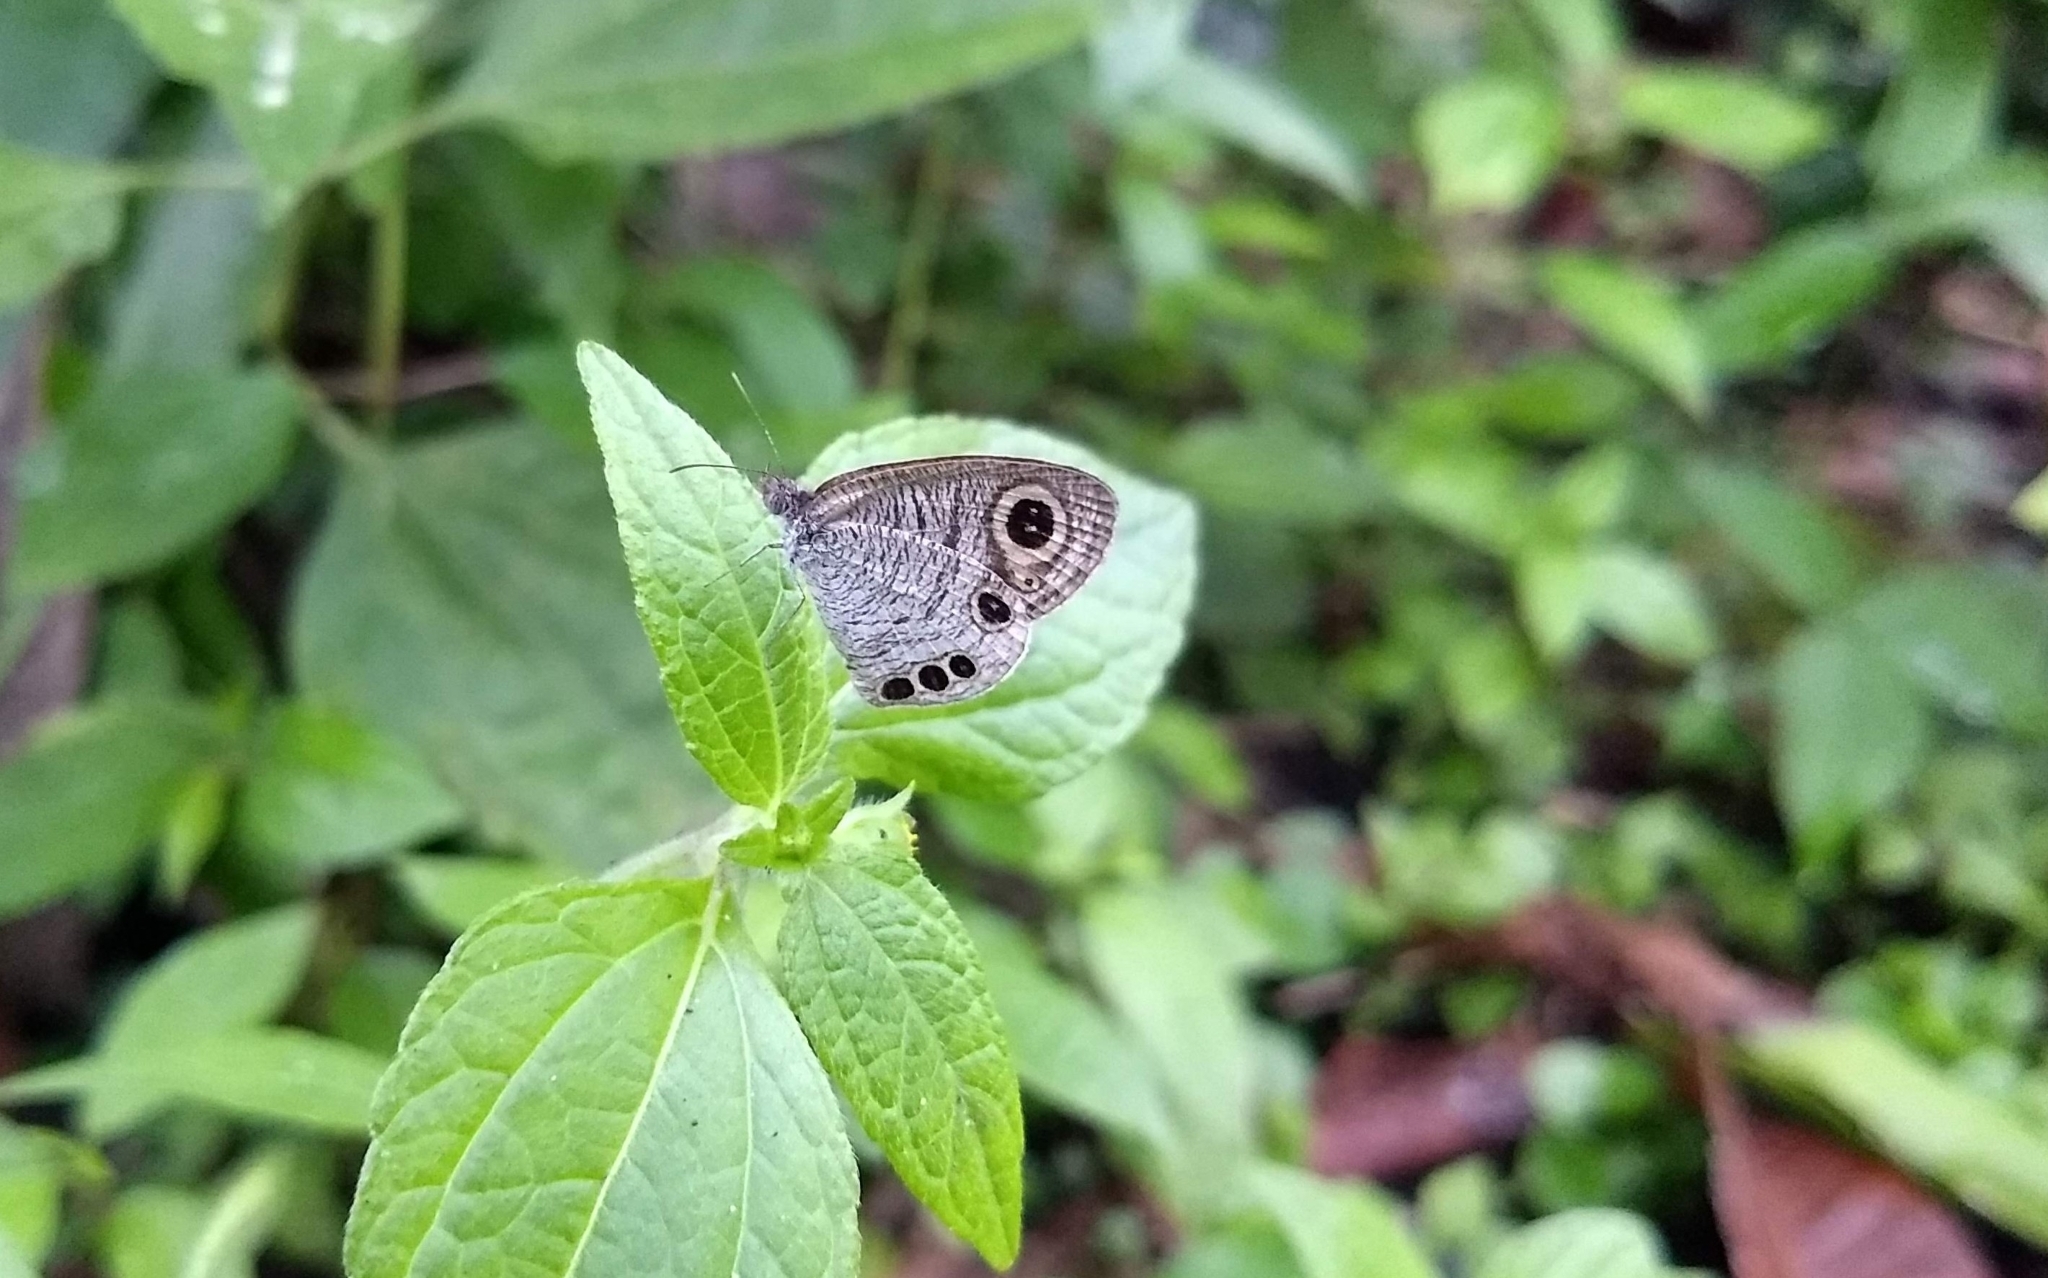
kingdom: Animalia
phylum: Arthropoda
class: Insecta
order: Lepidoptera
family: Nymphalidae
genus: Ypthima
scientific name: Ypthima huebneri
